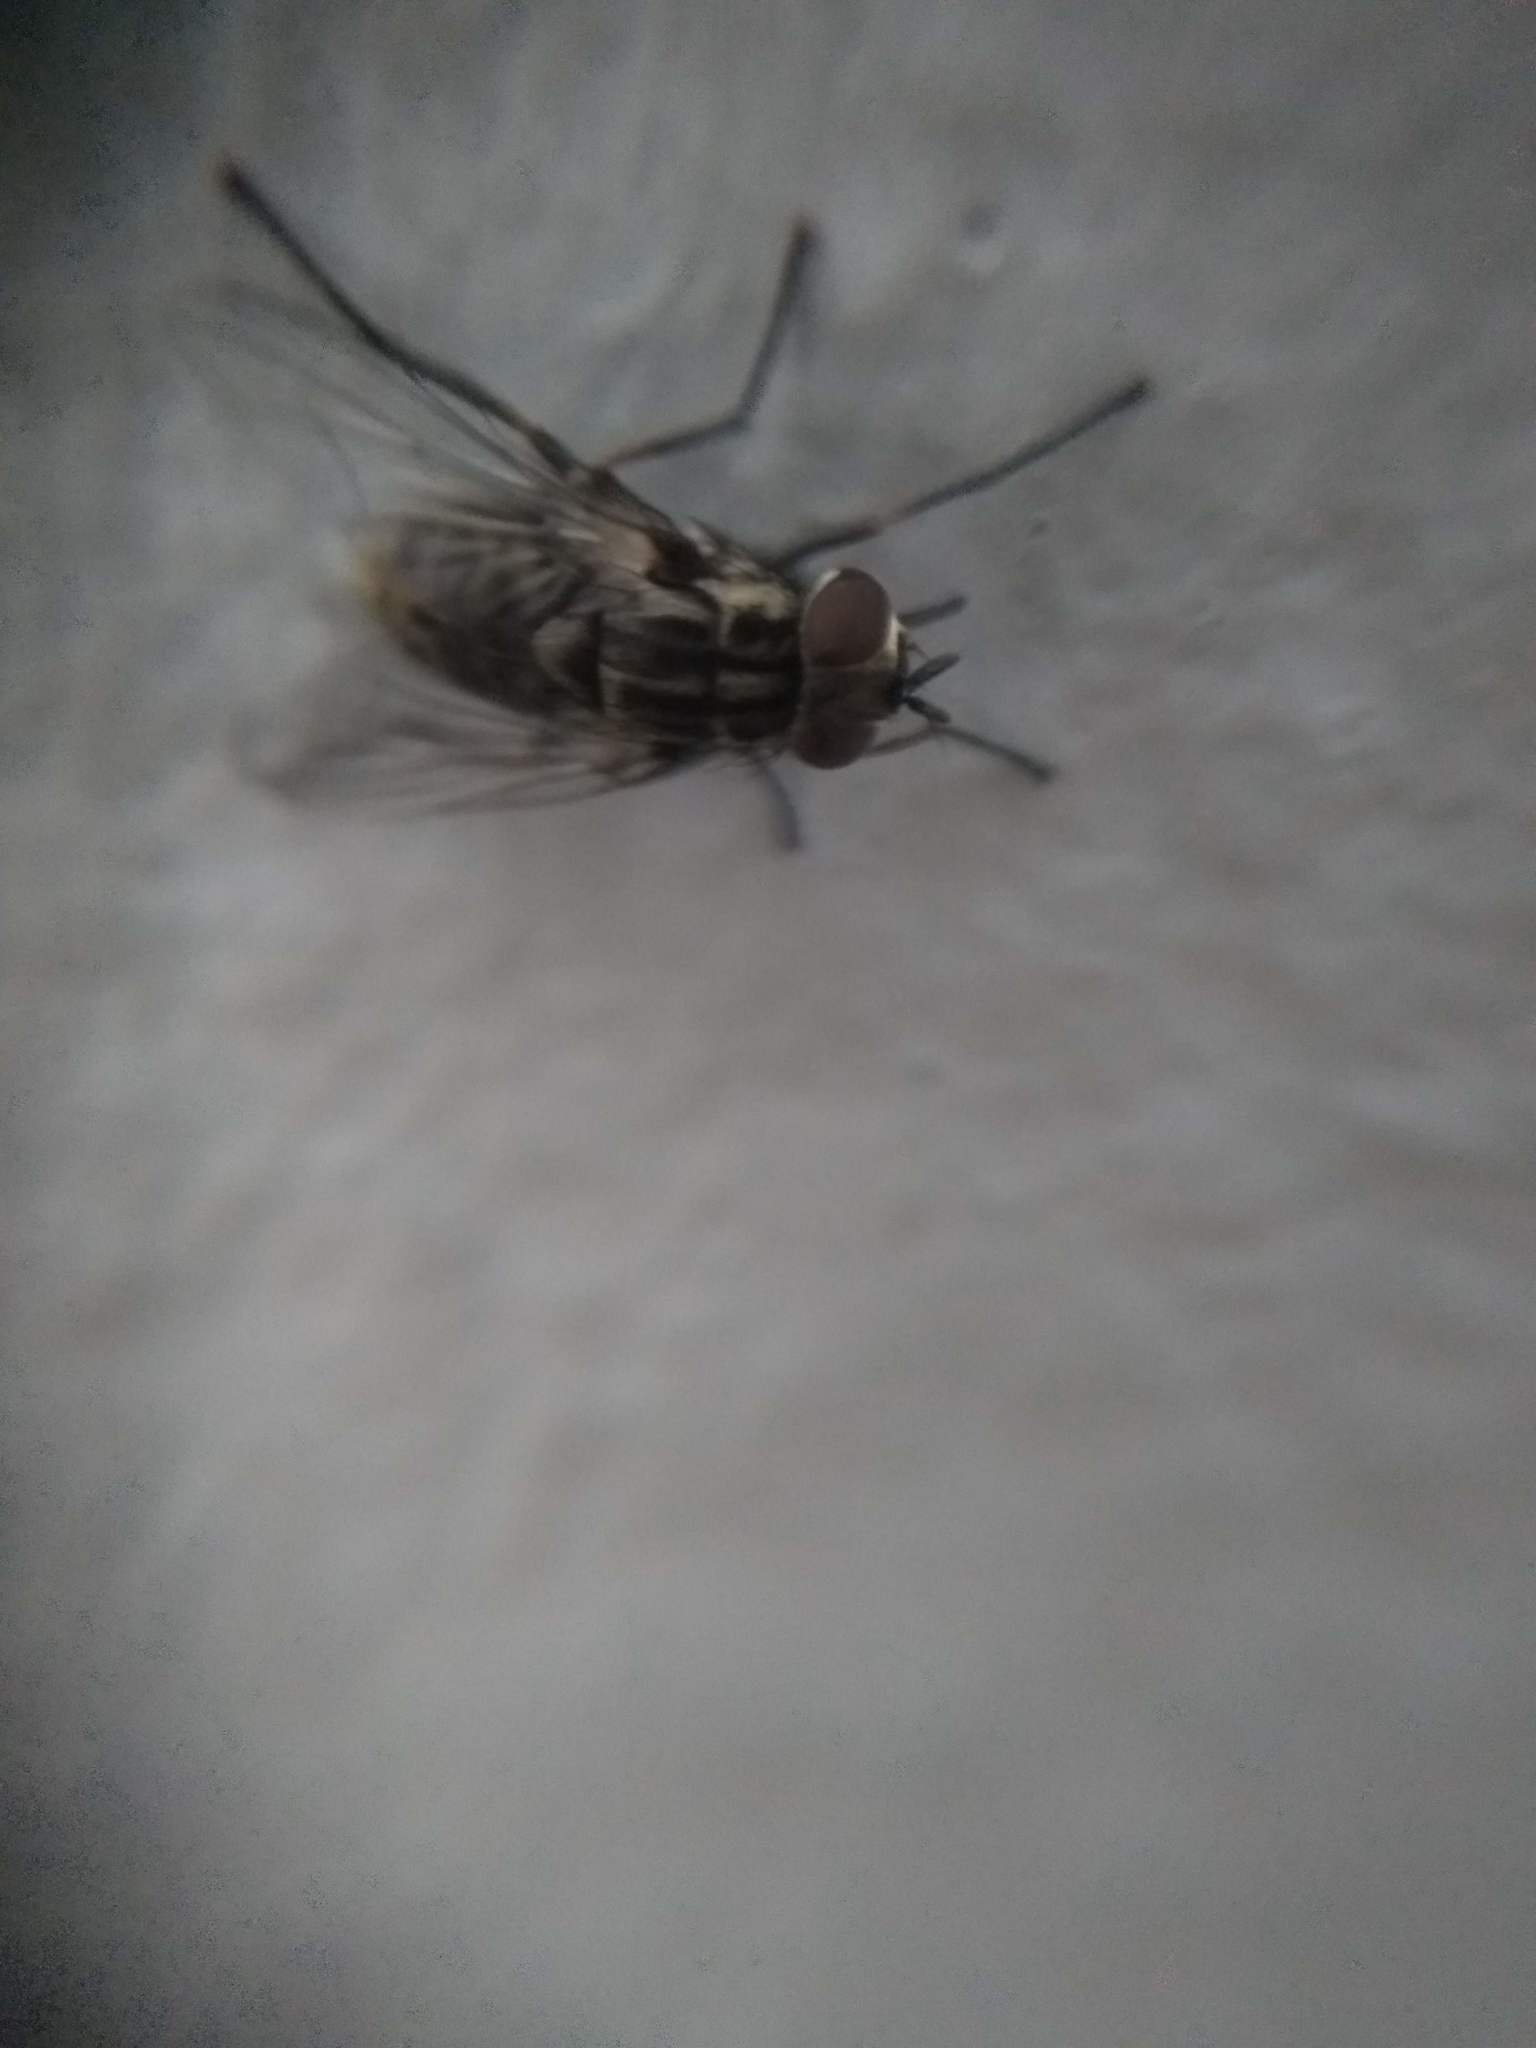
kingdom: Animalia
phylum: Arthropoda
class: Insecta
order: Diptera
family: Muscidae
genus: Stomoxys
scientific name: Stomoxys calcitrans
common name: Stable fly
